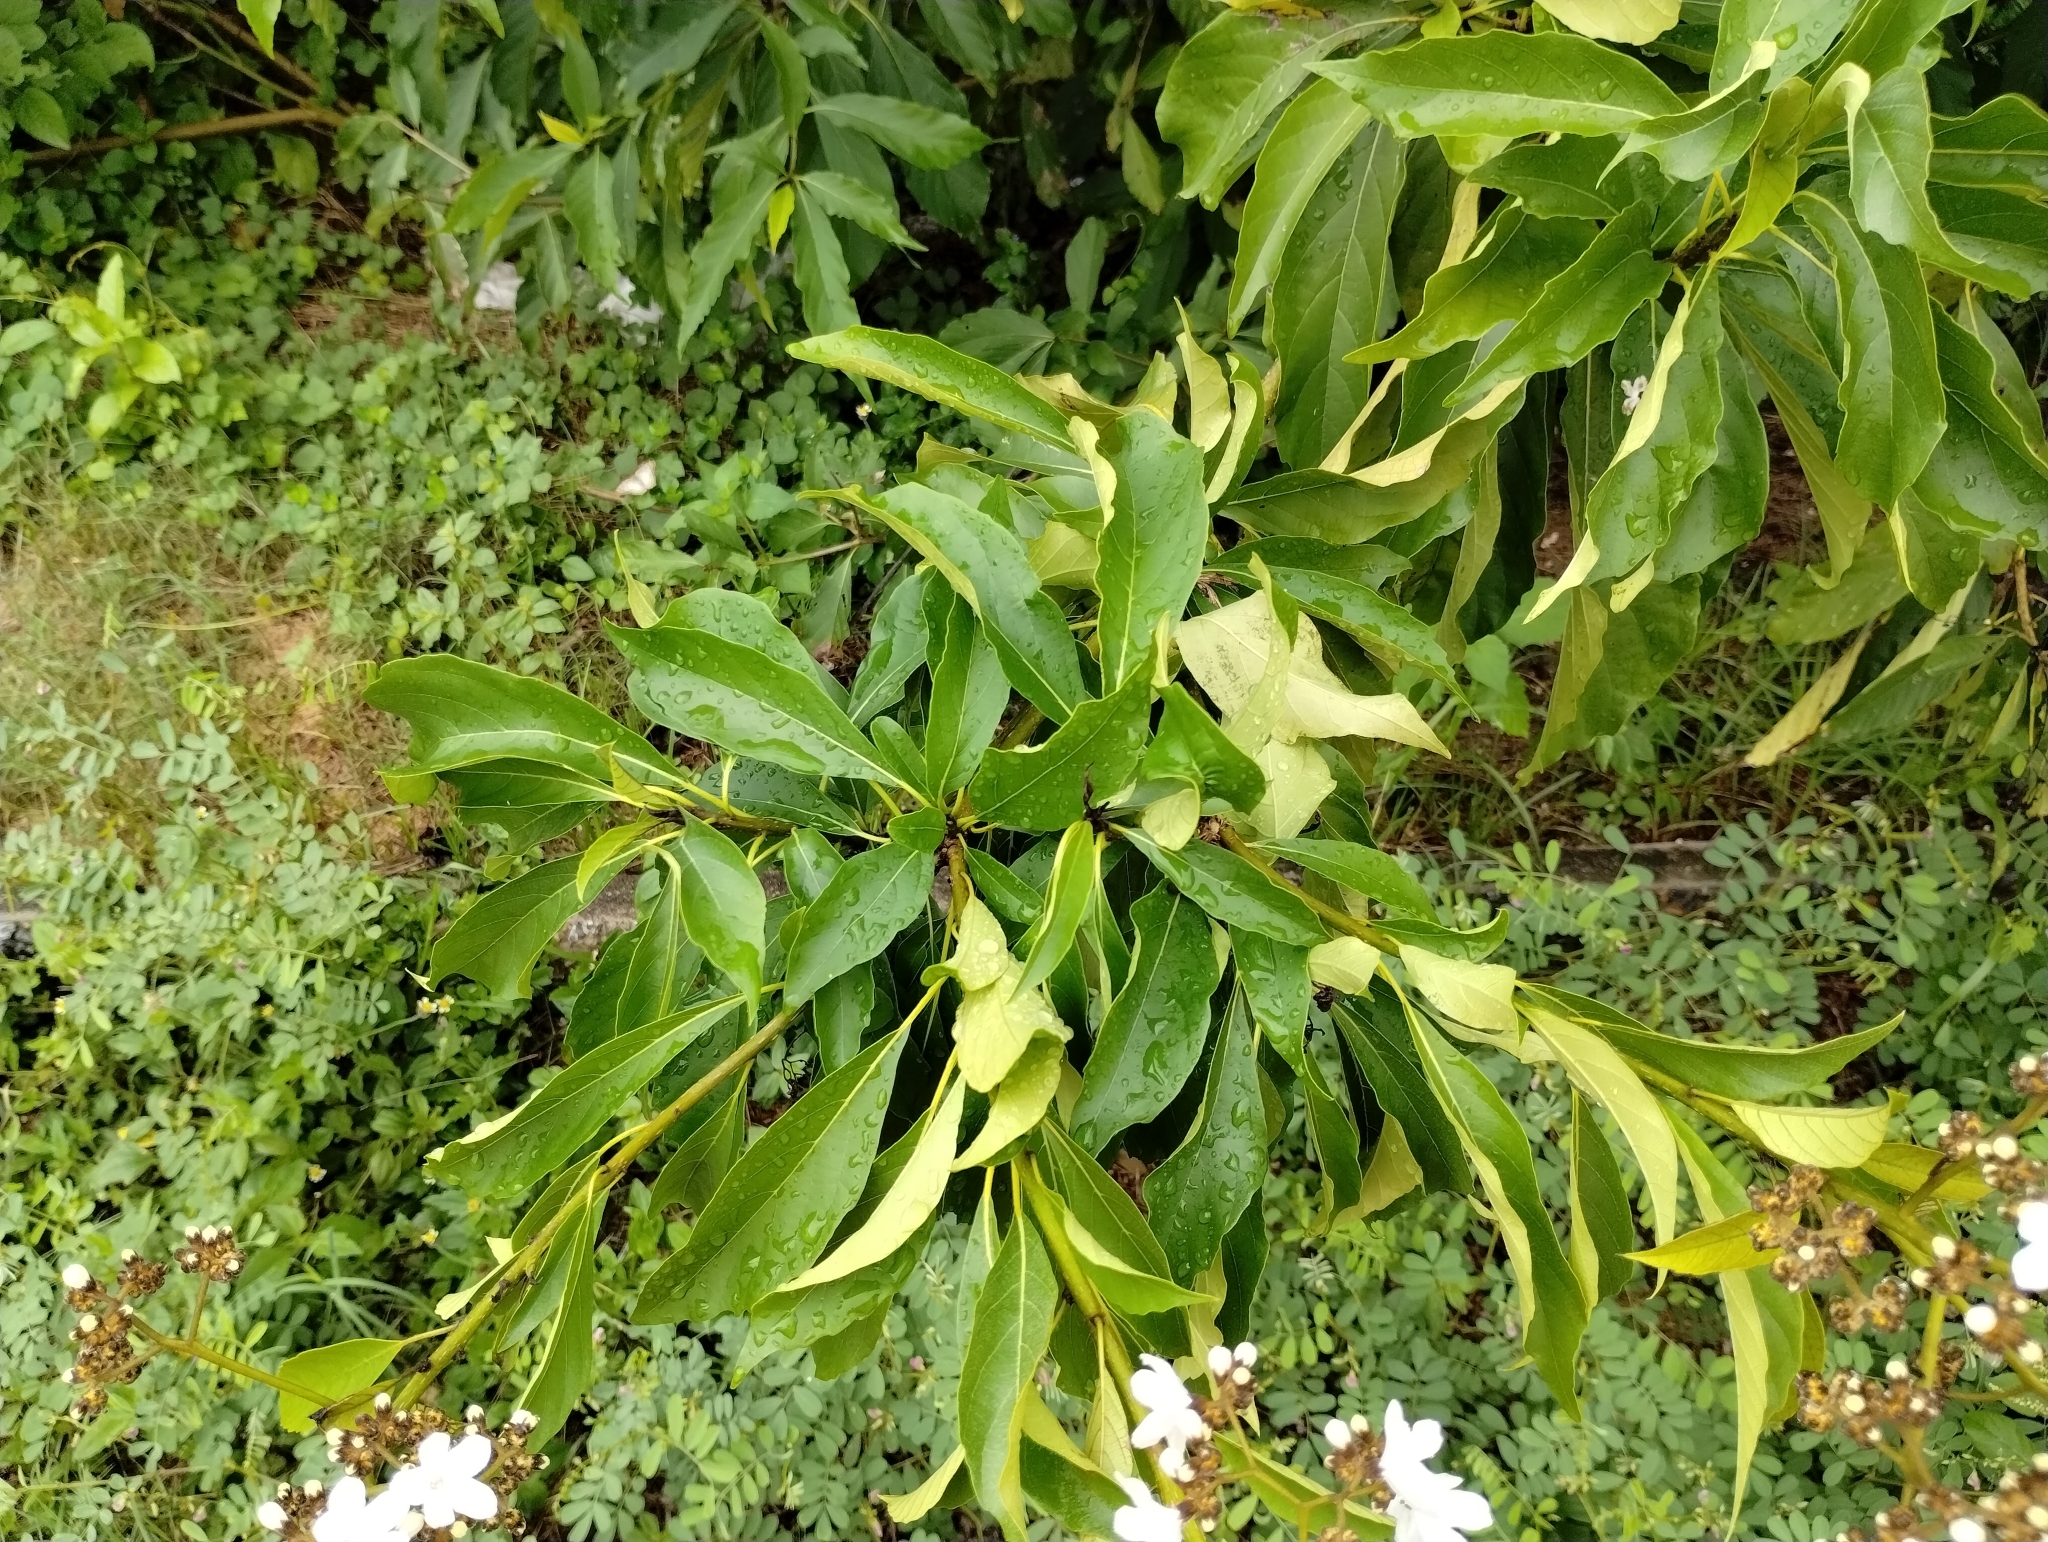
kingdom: Plantae
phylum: Tracheophyta
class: Magnoliopsida
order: Boraginales
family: Cordiaceae
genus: Cordia
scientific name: Cordia oncocalyx
